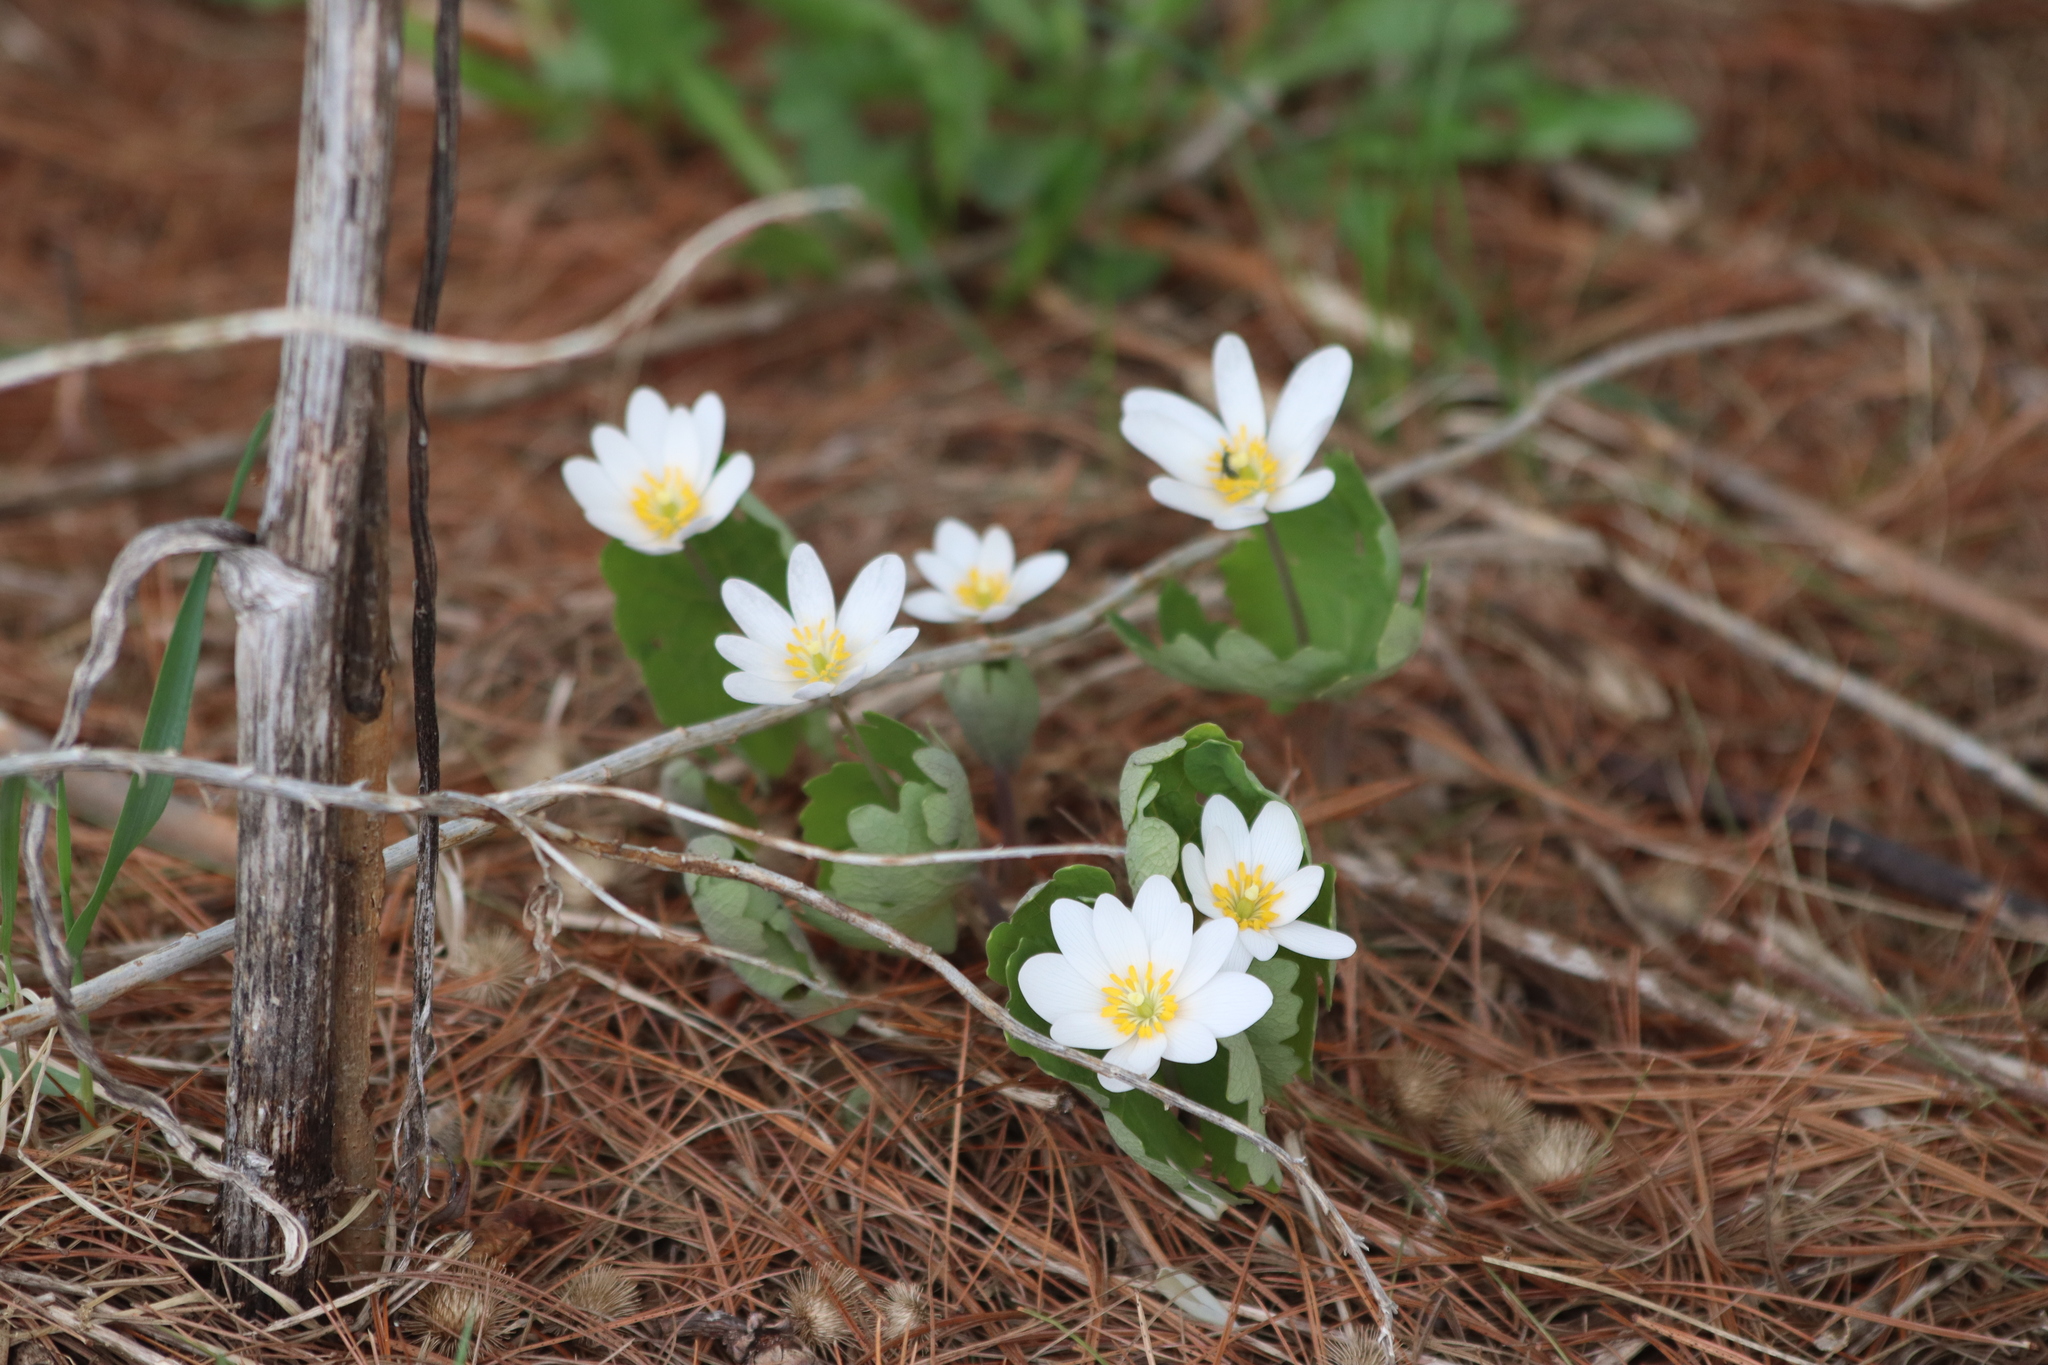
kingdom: Plantae
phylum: Tracheophyta
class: Magnoliopsida
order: Ranunculales
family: Papaveraceae
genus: Sanguinaria
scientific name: Sanguinaria canadensis
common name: Bloodroot
